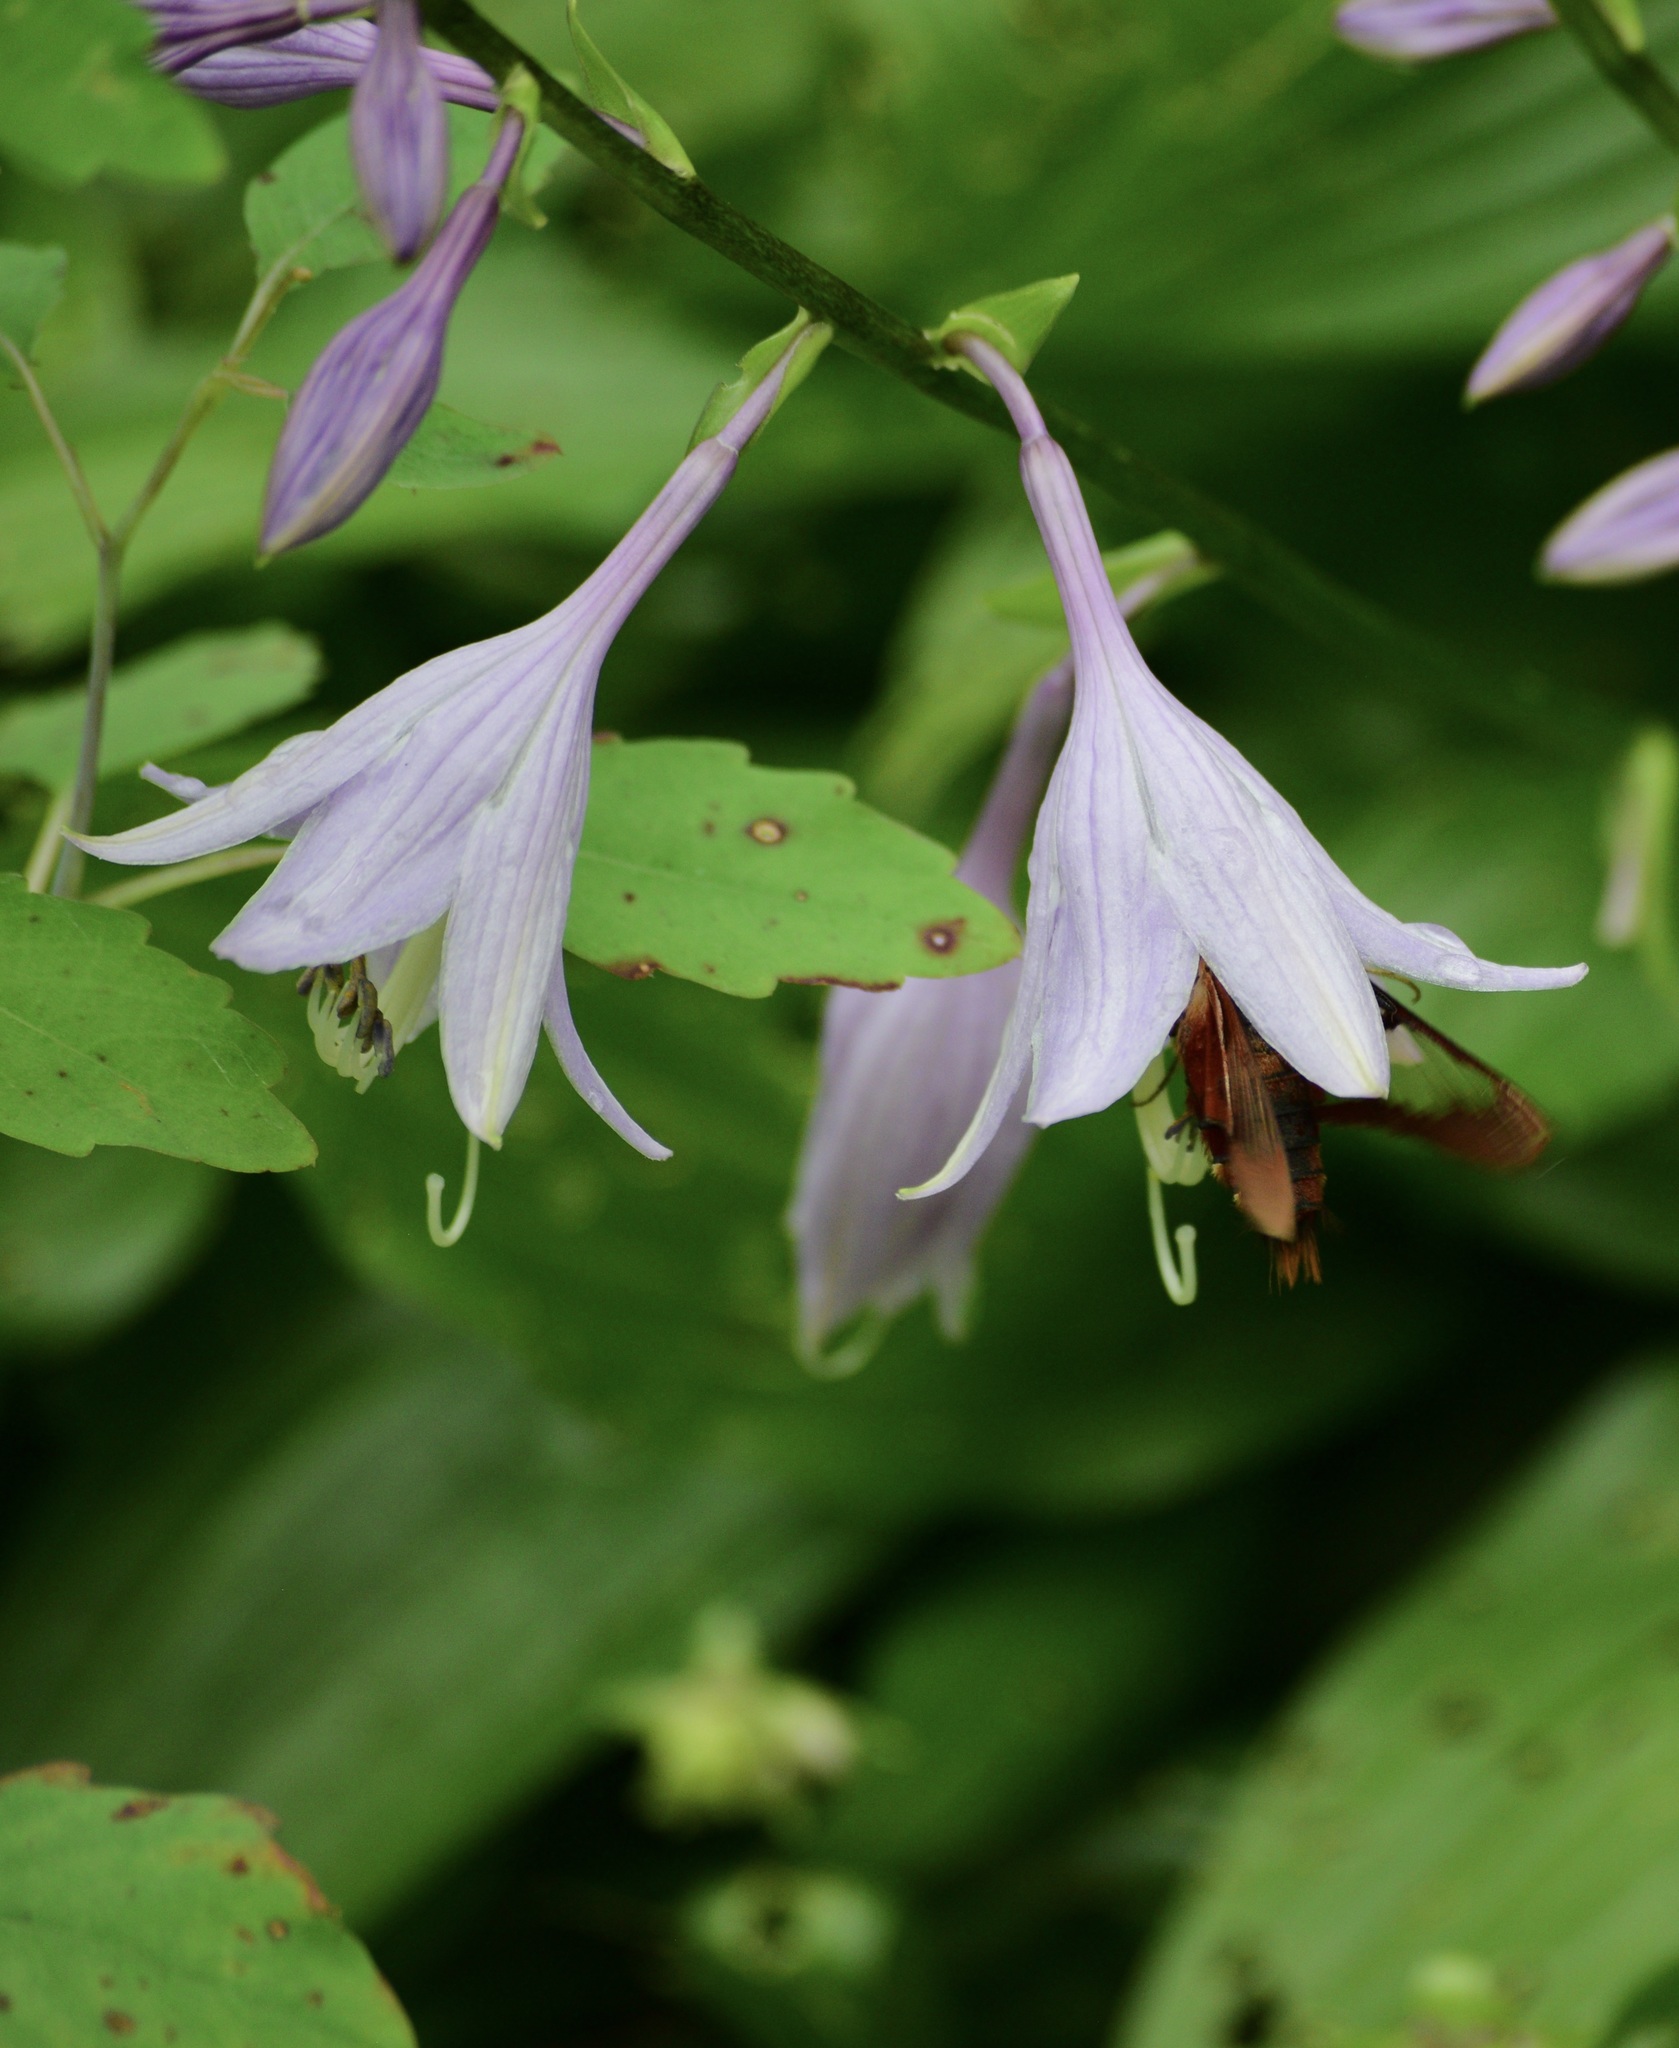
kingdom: Animalia
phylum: Arthropoda
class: Insecta
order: Lepidoptera
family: Sphingidae
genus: Hemaris
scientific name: Hemaris thysbe
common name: Common clear-wing
